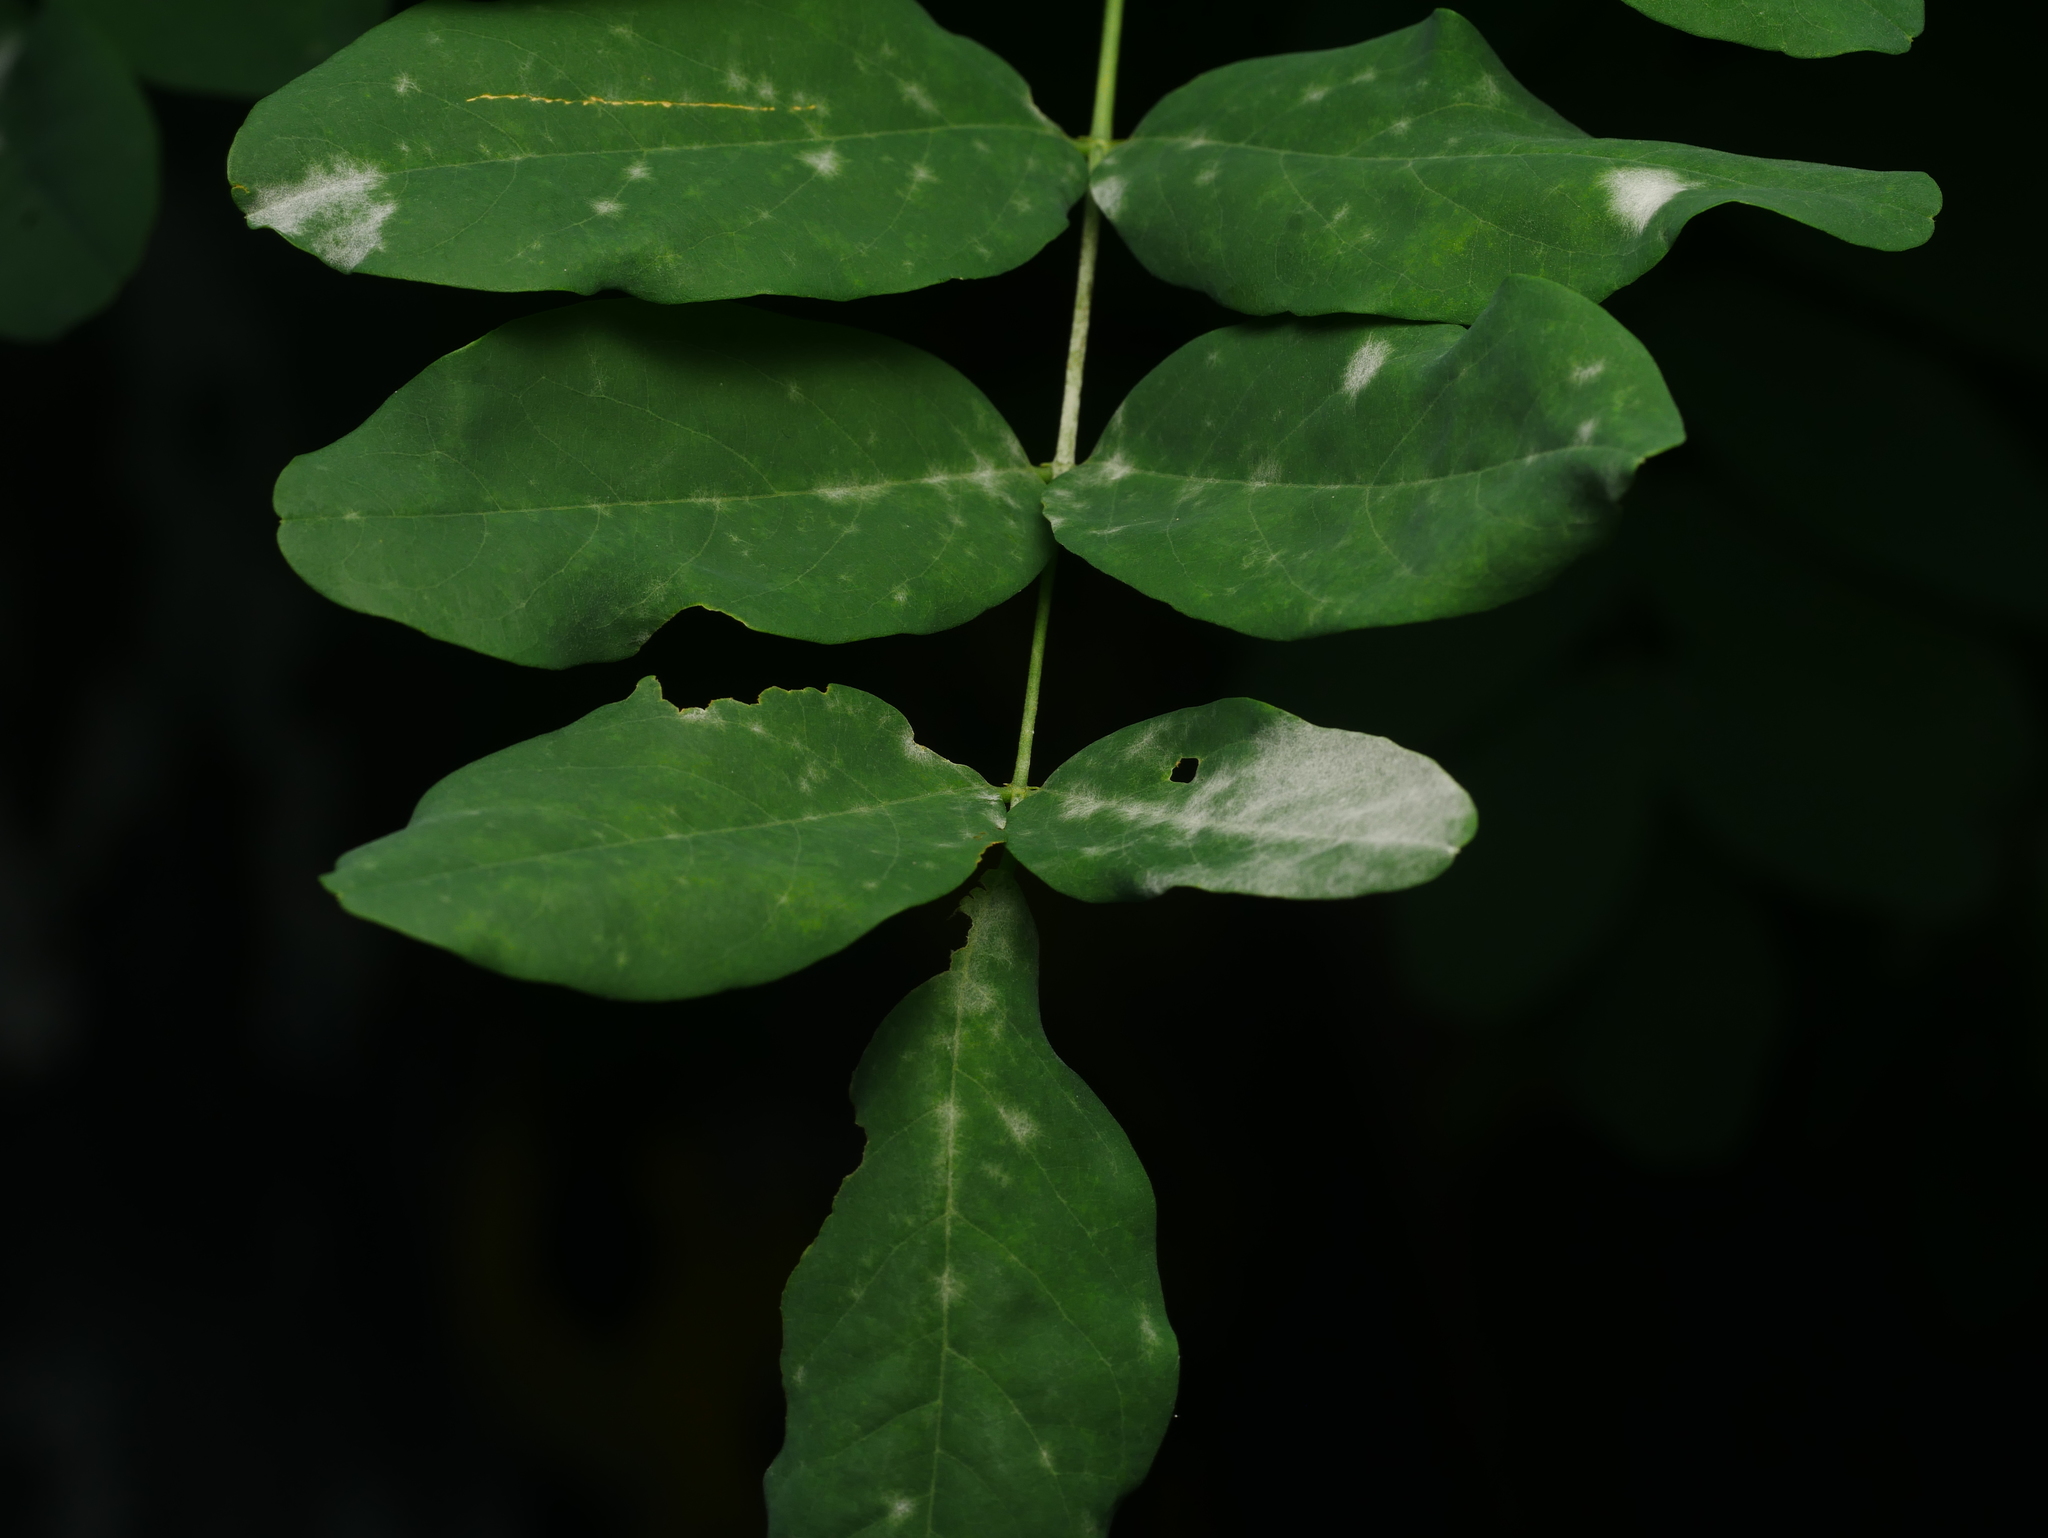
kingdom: Plantae
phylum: Tracheophyta
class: Magnoliopsida
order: Fabales
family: Fabaceae
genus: Robinia
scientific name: Robinia pseudoacacia
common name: Black locust
